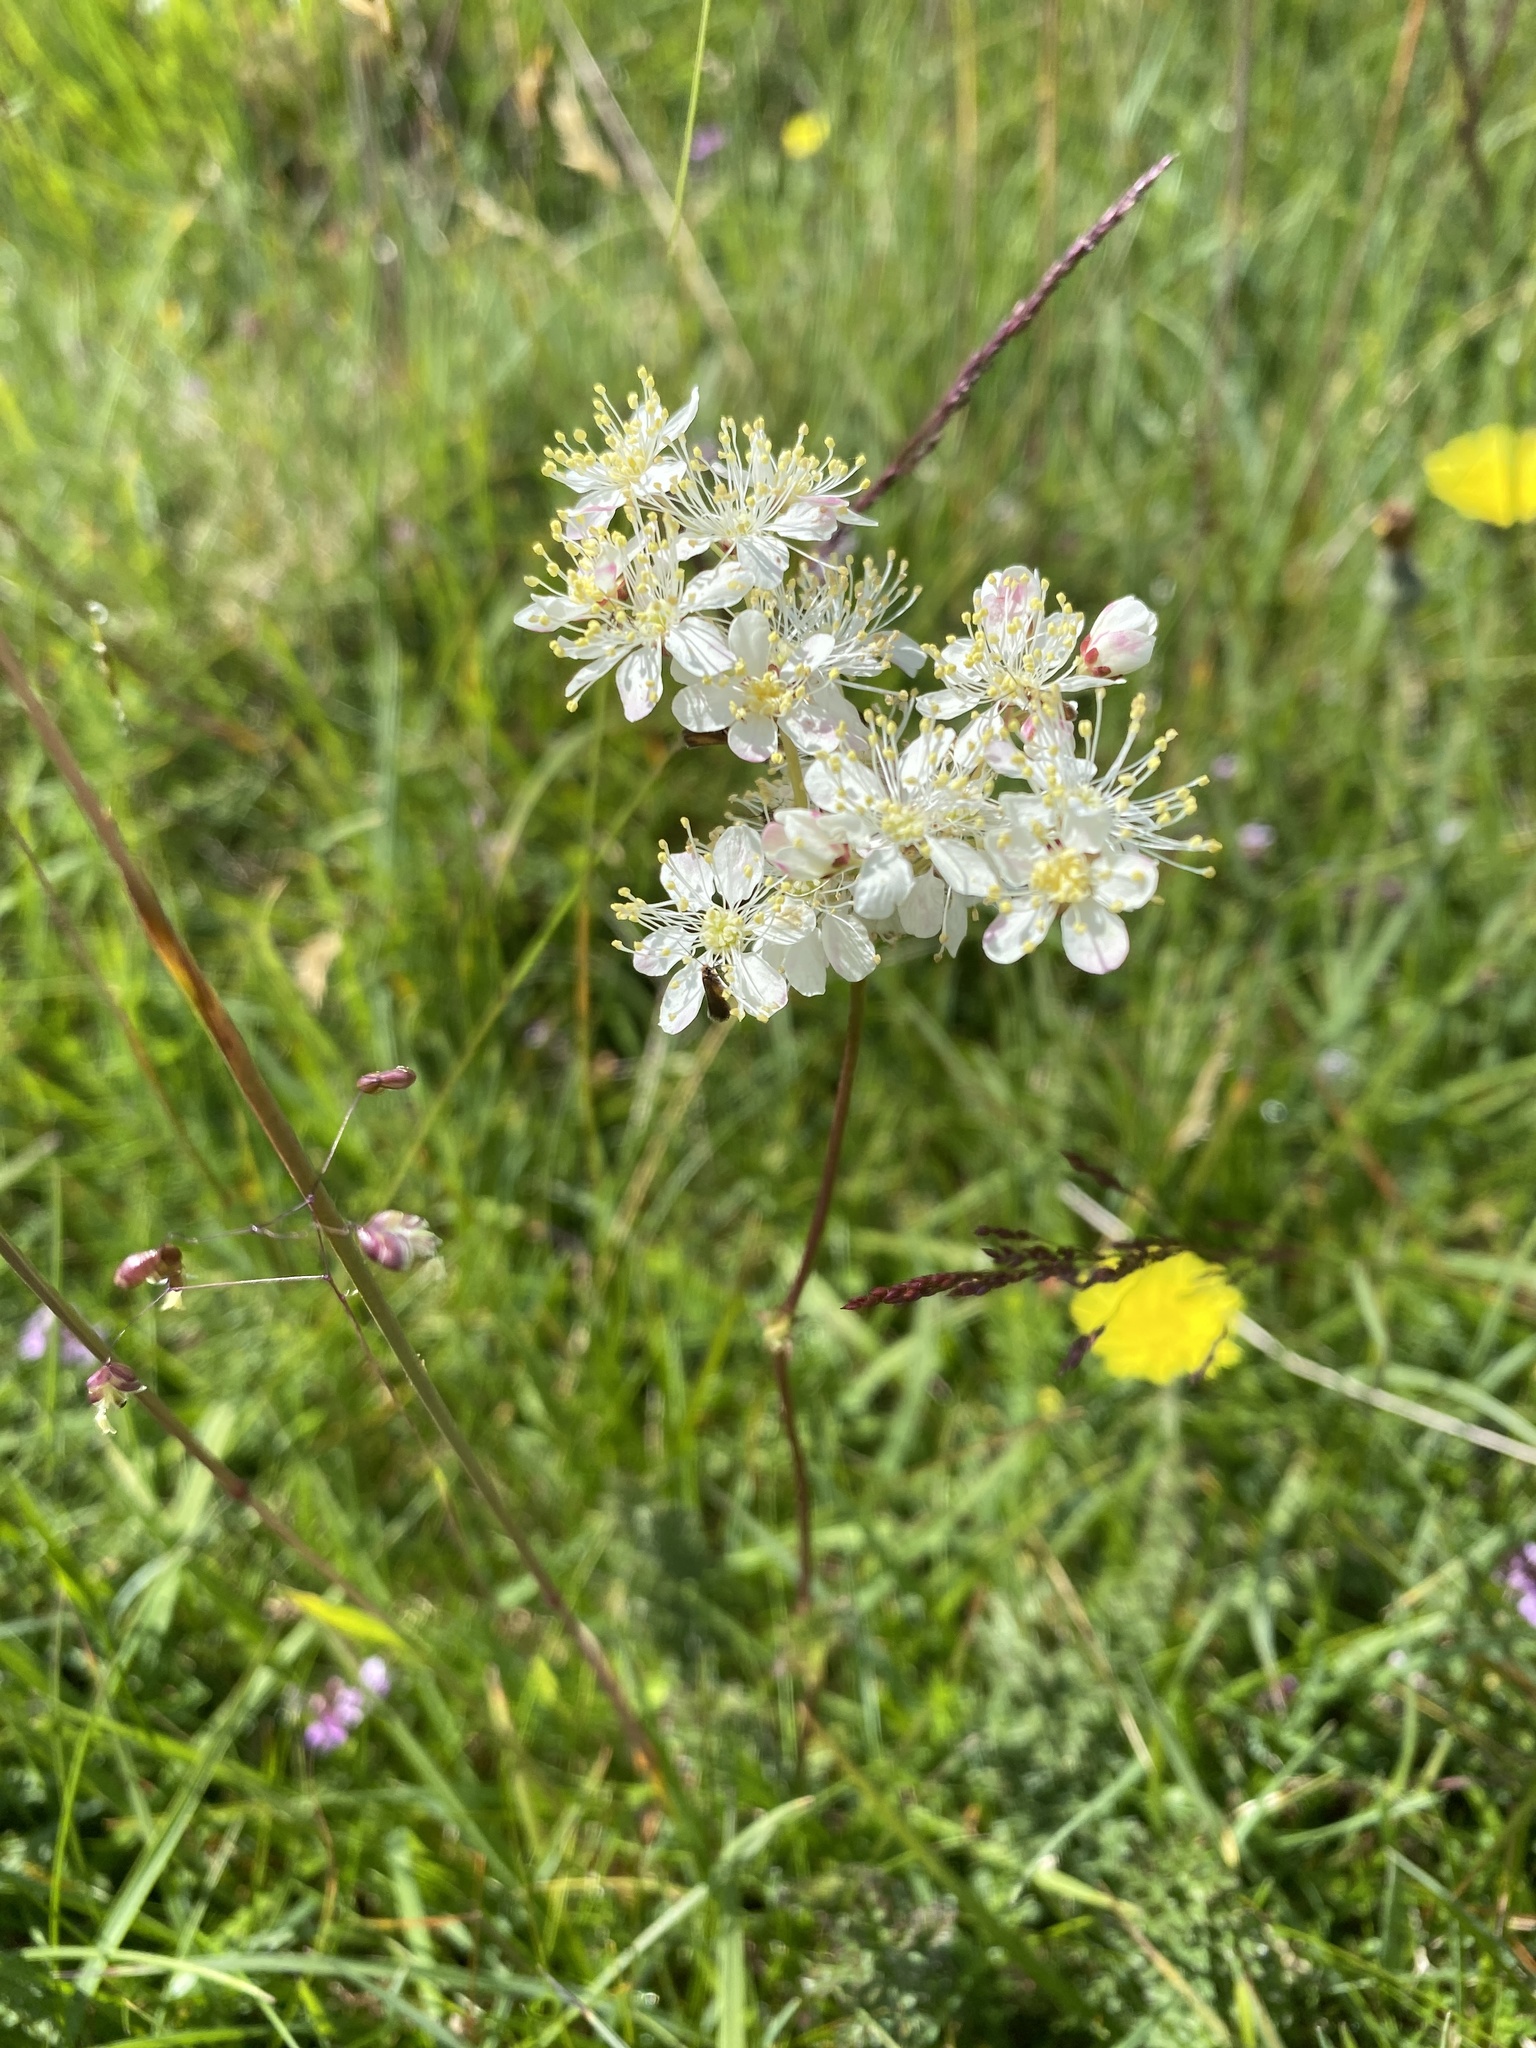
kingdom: Plantae
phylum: Tracheophyta
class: Magnoliopsida
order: Rosales
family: Rosaceae
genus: Filipendula
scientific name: Filipendula vulgaris
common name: Dropwort
